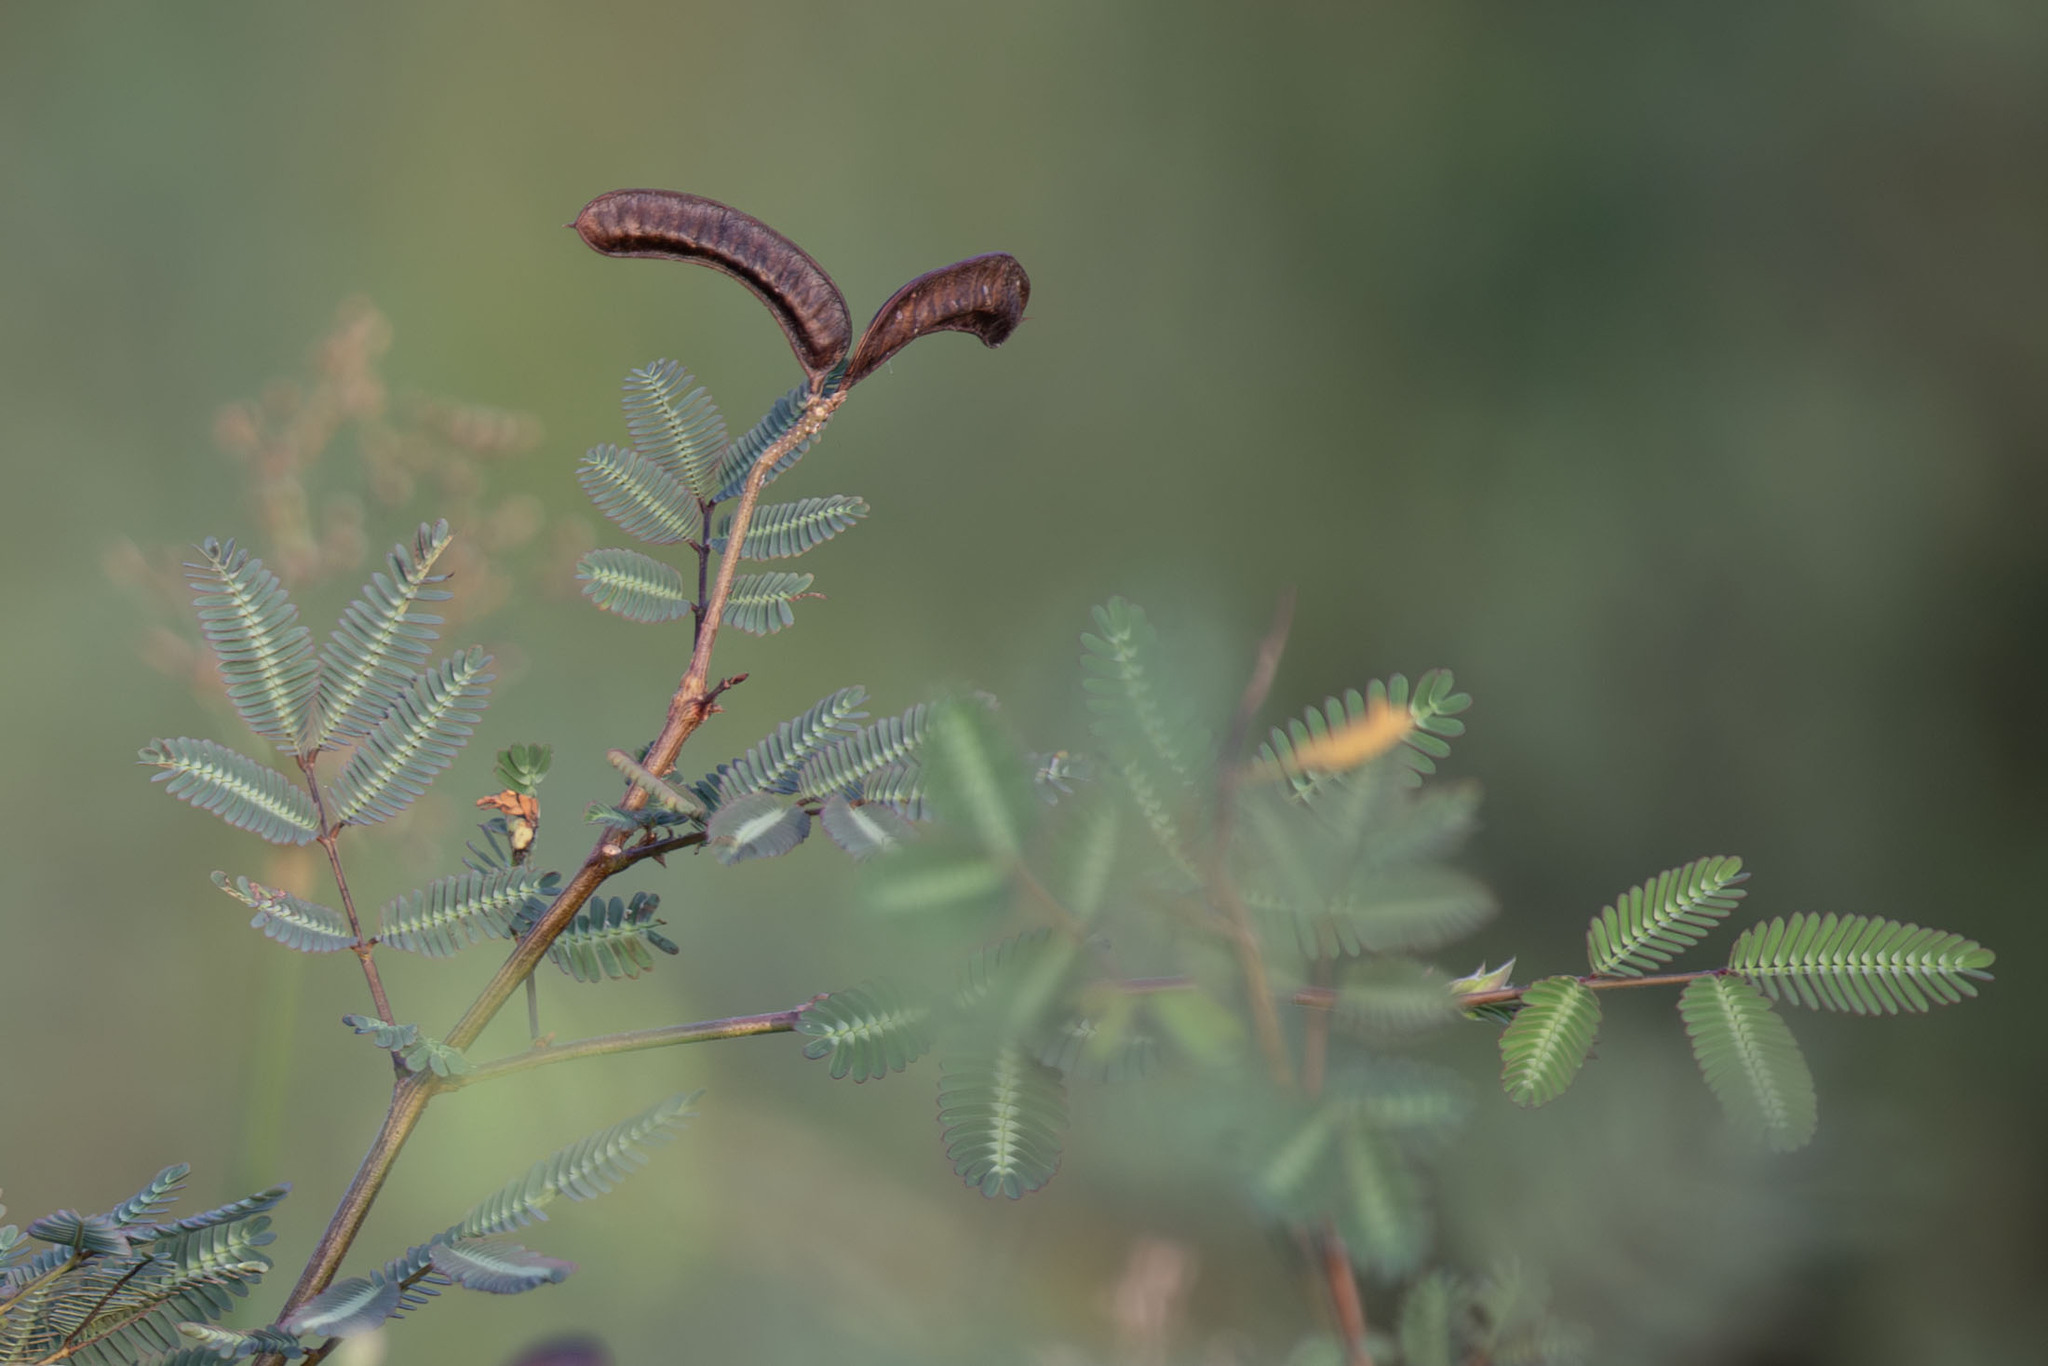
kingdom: Plantae
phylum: Tracheophyta
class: Magnoliopsida
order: Fabales
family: Fabaceae
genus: Neptunia
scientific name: Neptunia plena
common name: Dead and awake
